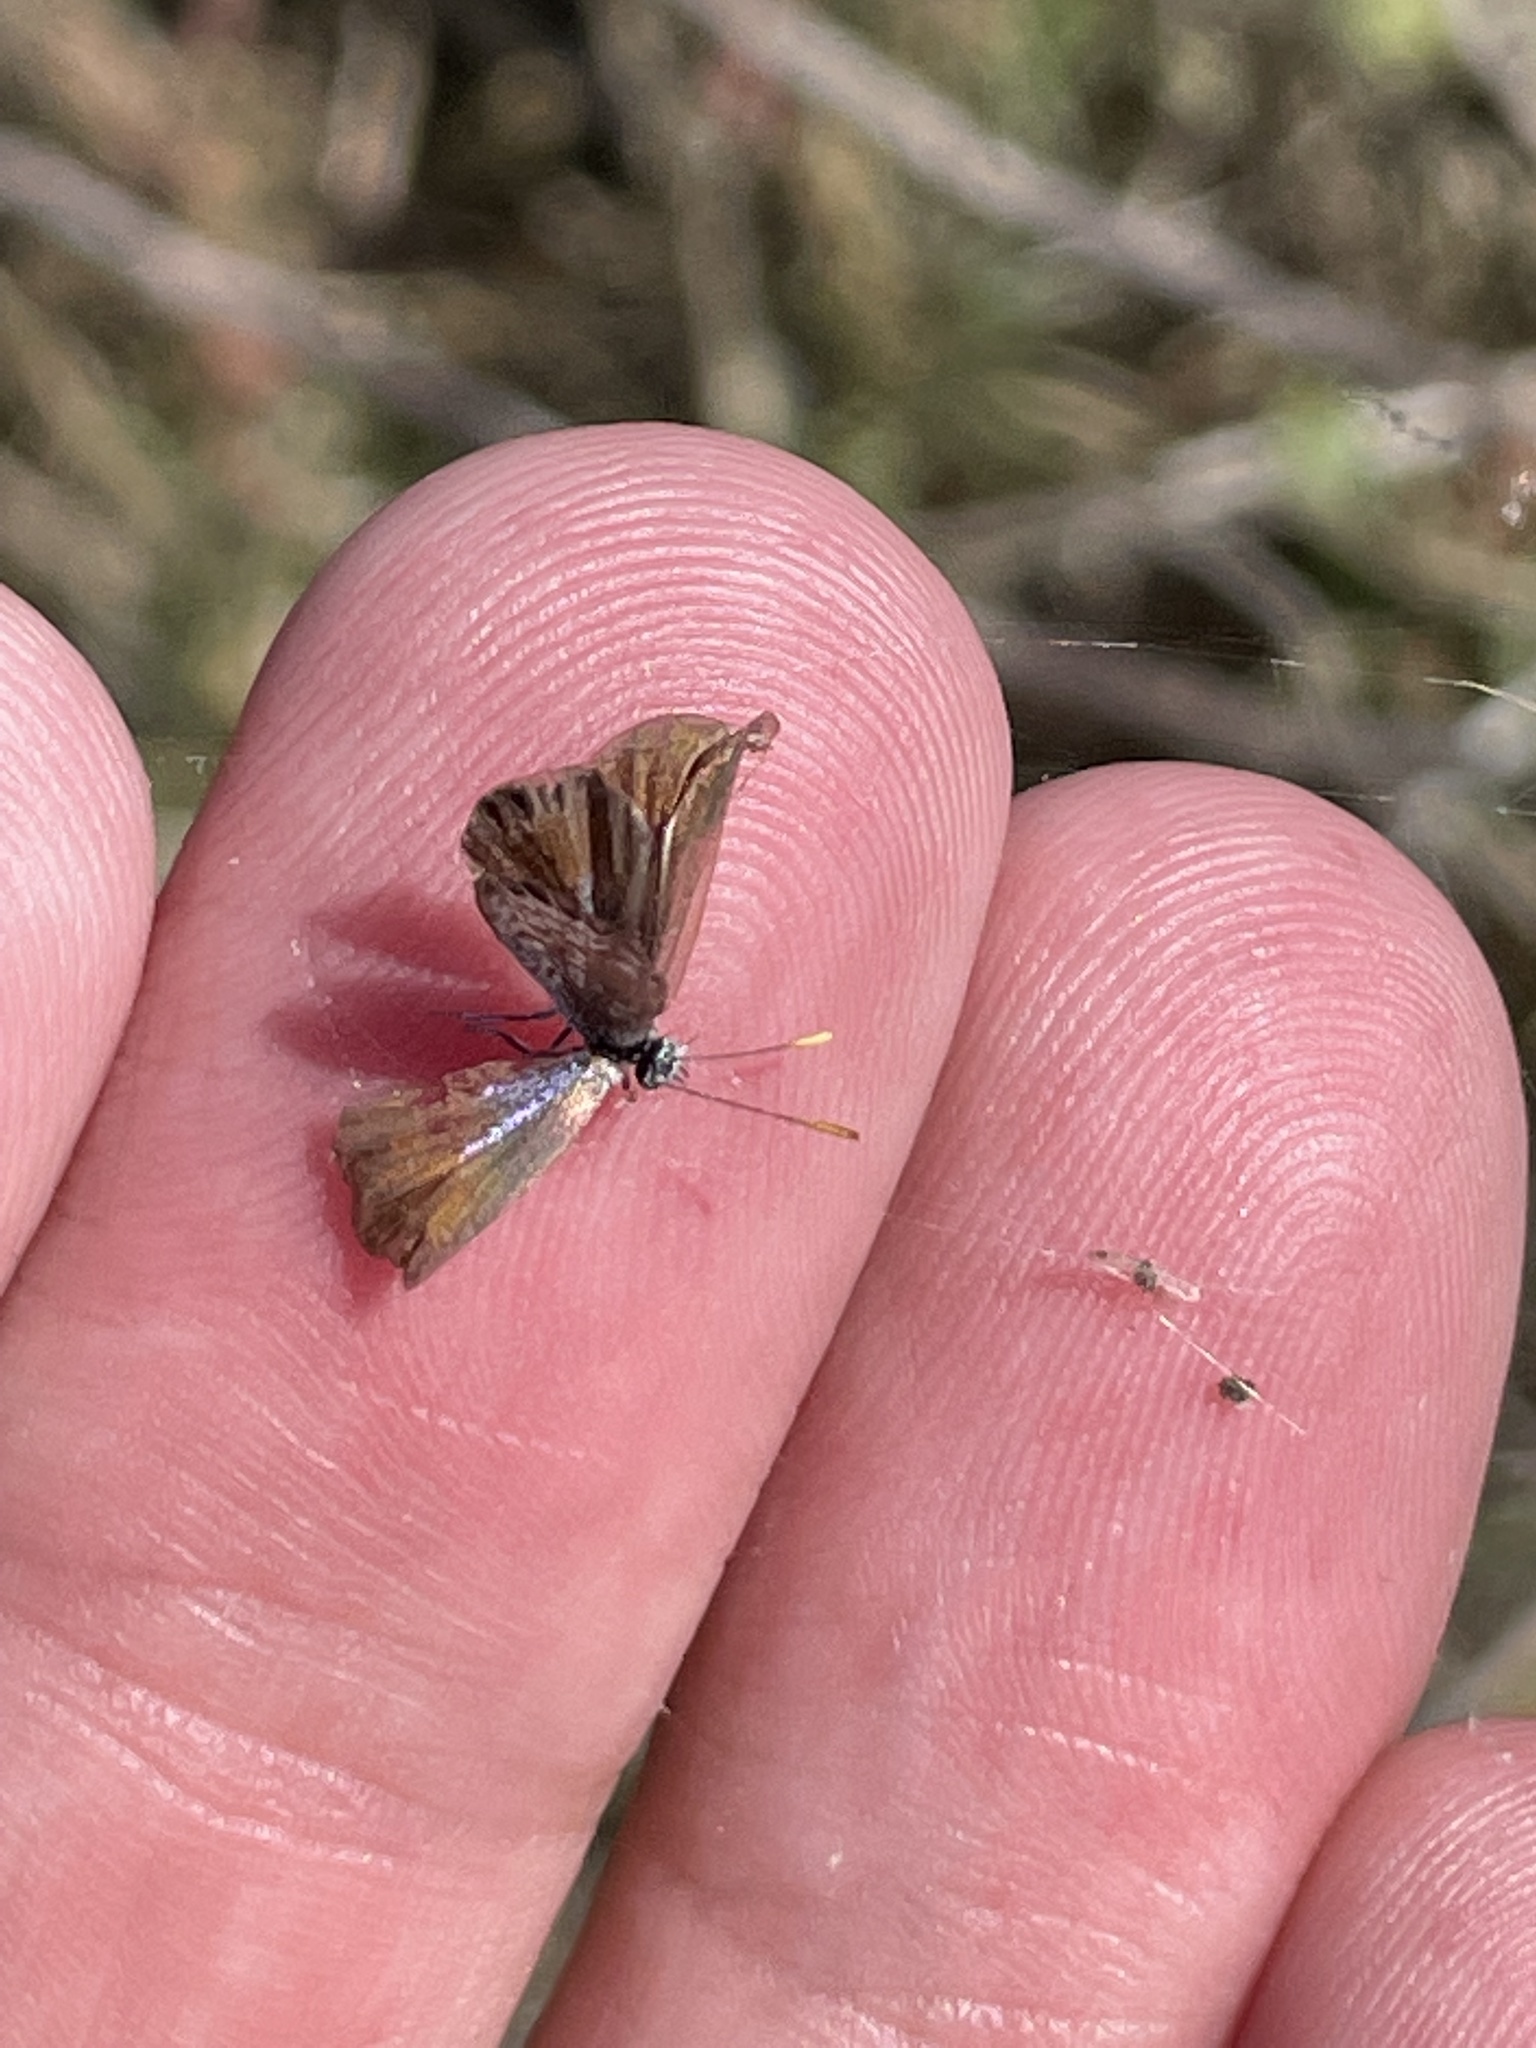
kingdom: Animalia
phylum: Arthropoda
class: Insecta
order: Lepidoptera
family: Lycaenidae
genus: Brephidium
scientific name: Brephidium exilis
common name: Pygmy blue
